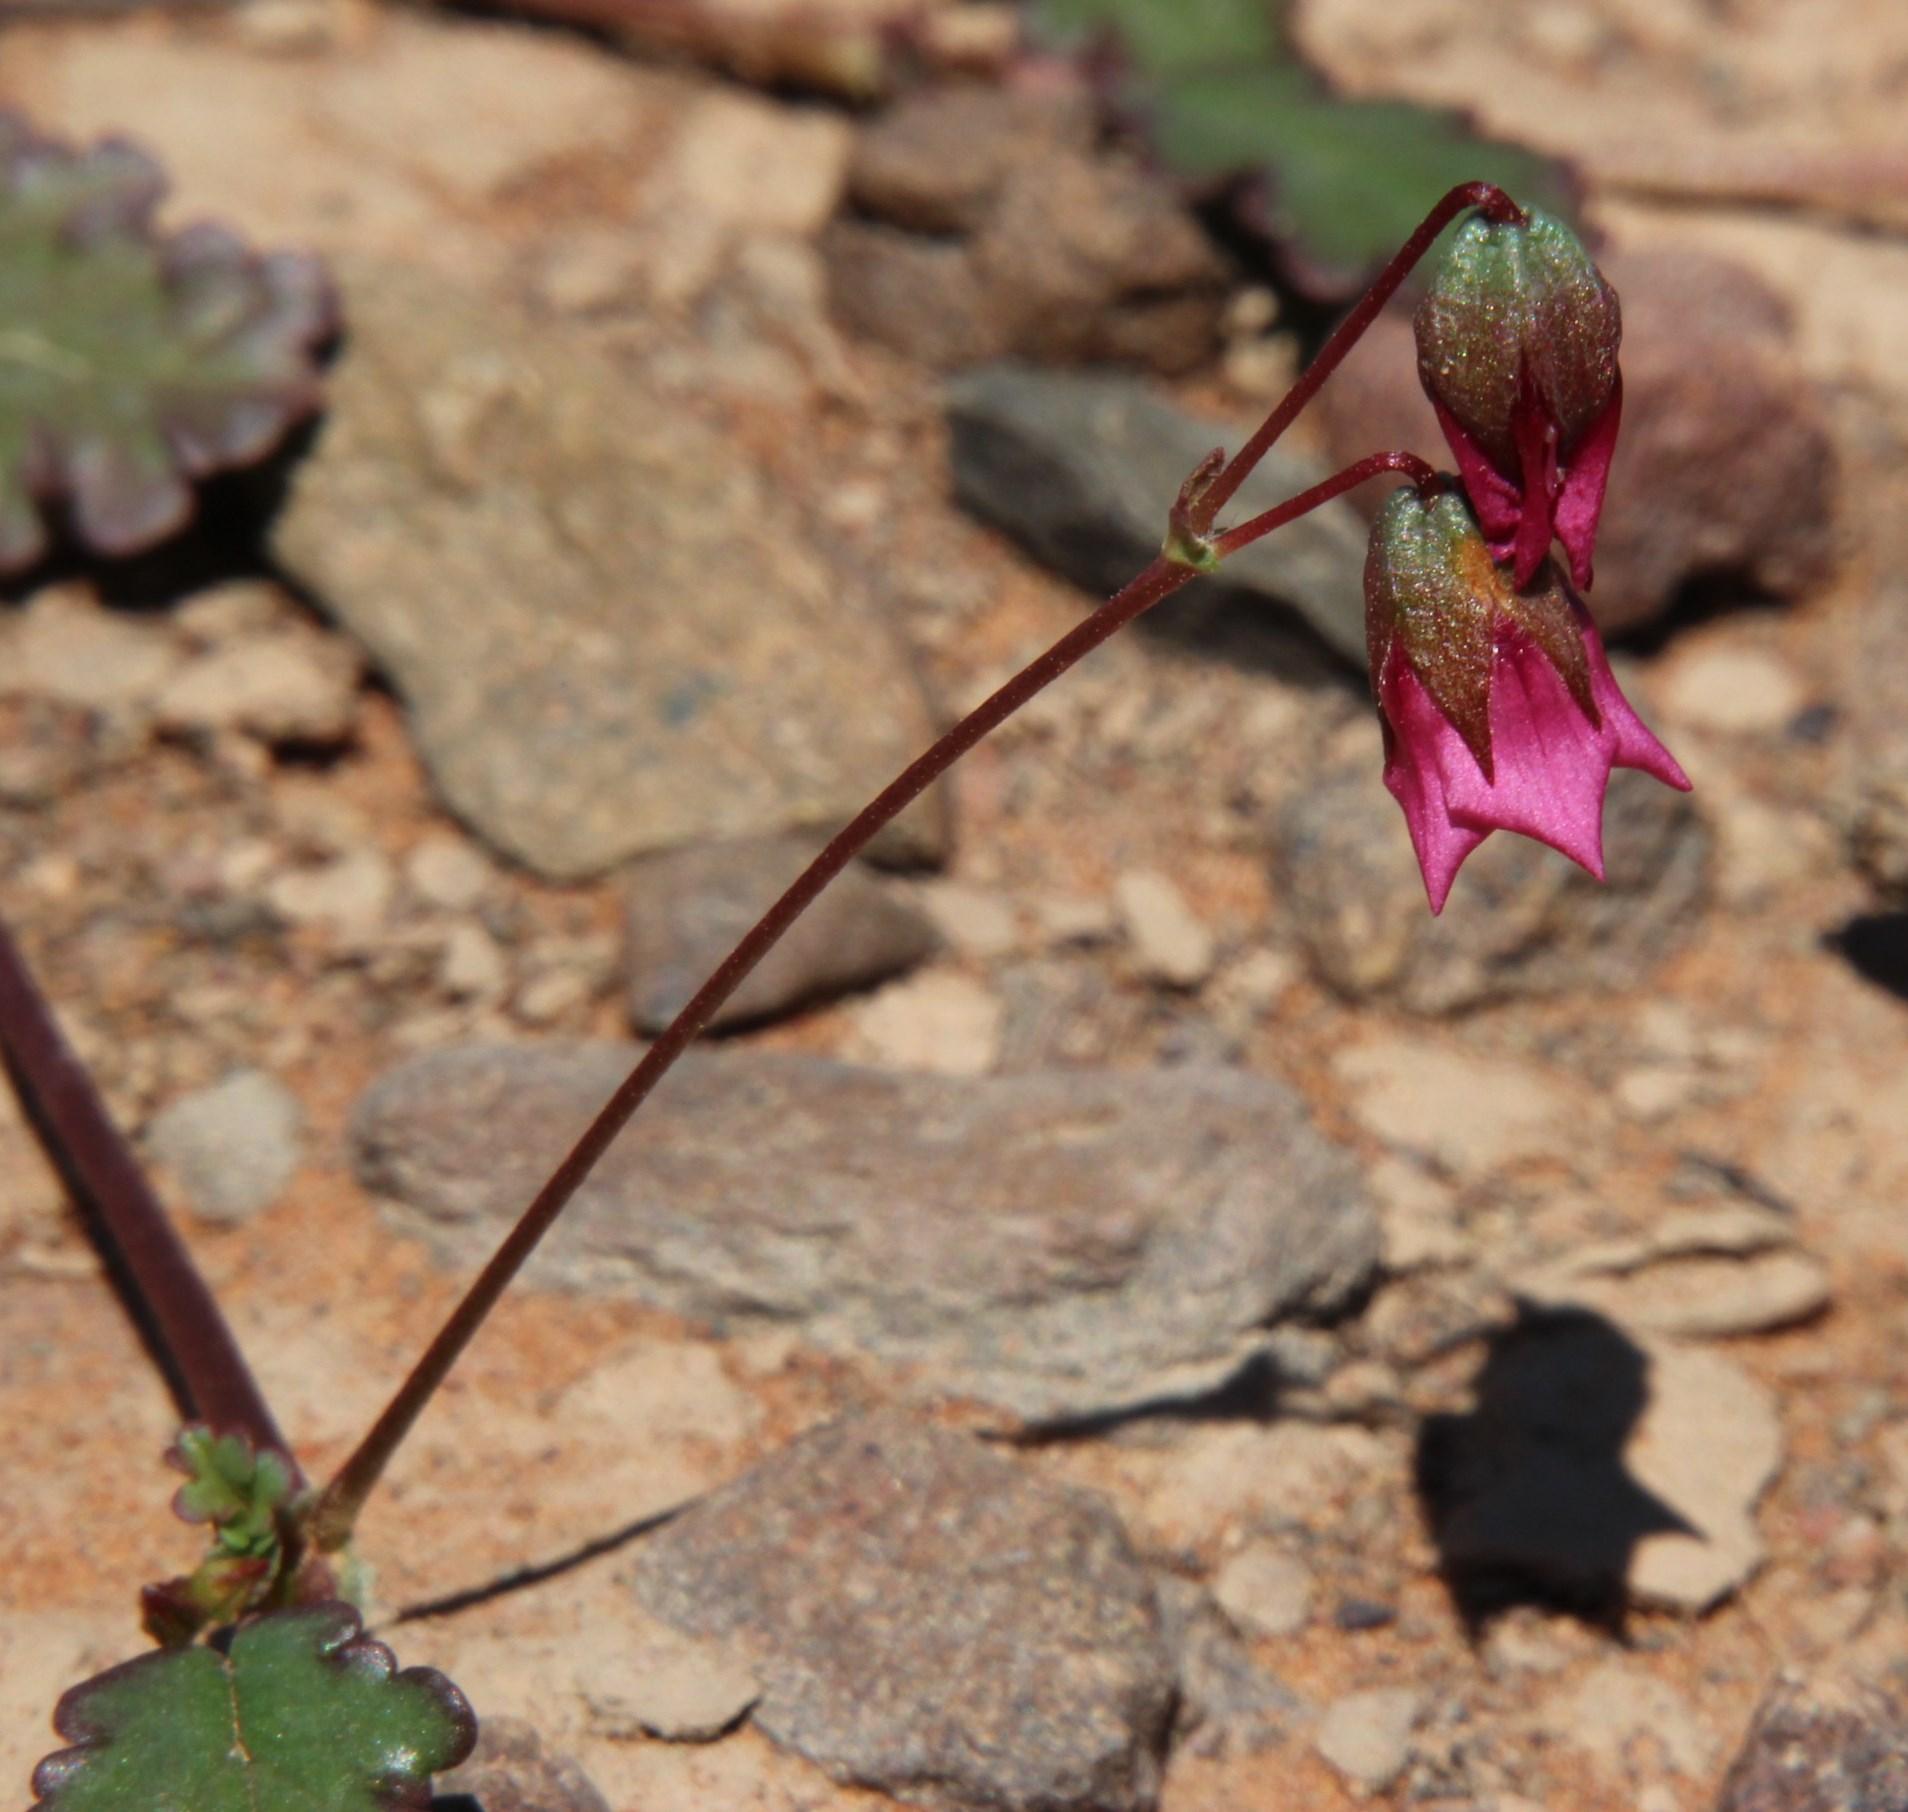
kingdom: Plantae
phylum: Tracheophyta
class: Magnoliopsida
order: Malvales
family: Malvaceae
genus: Hermannia
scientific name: Hermannia coccocarpa
